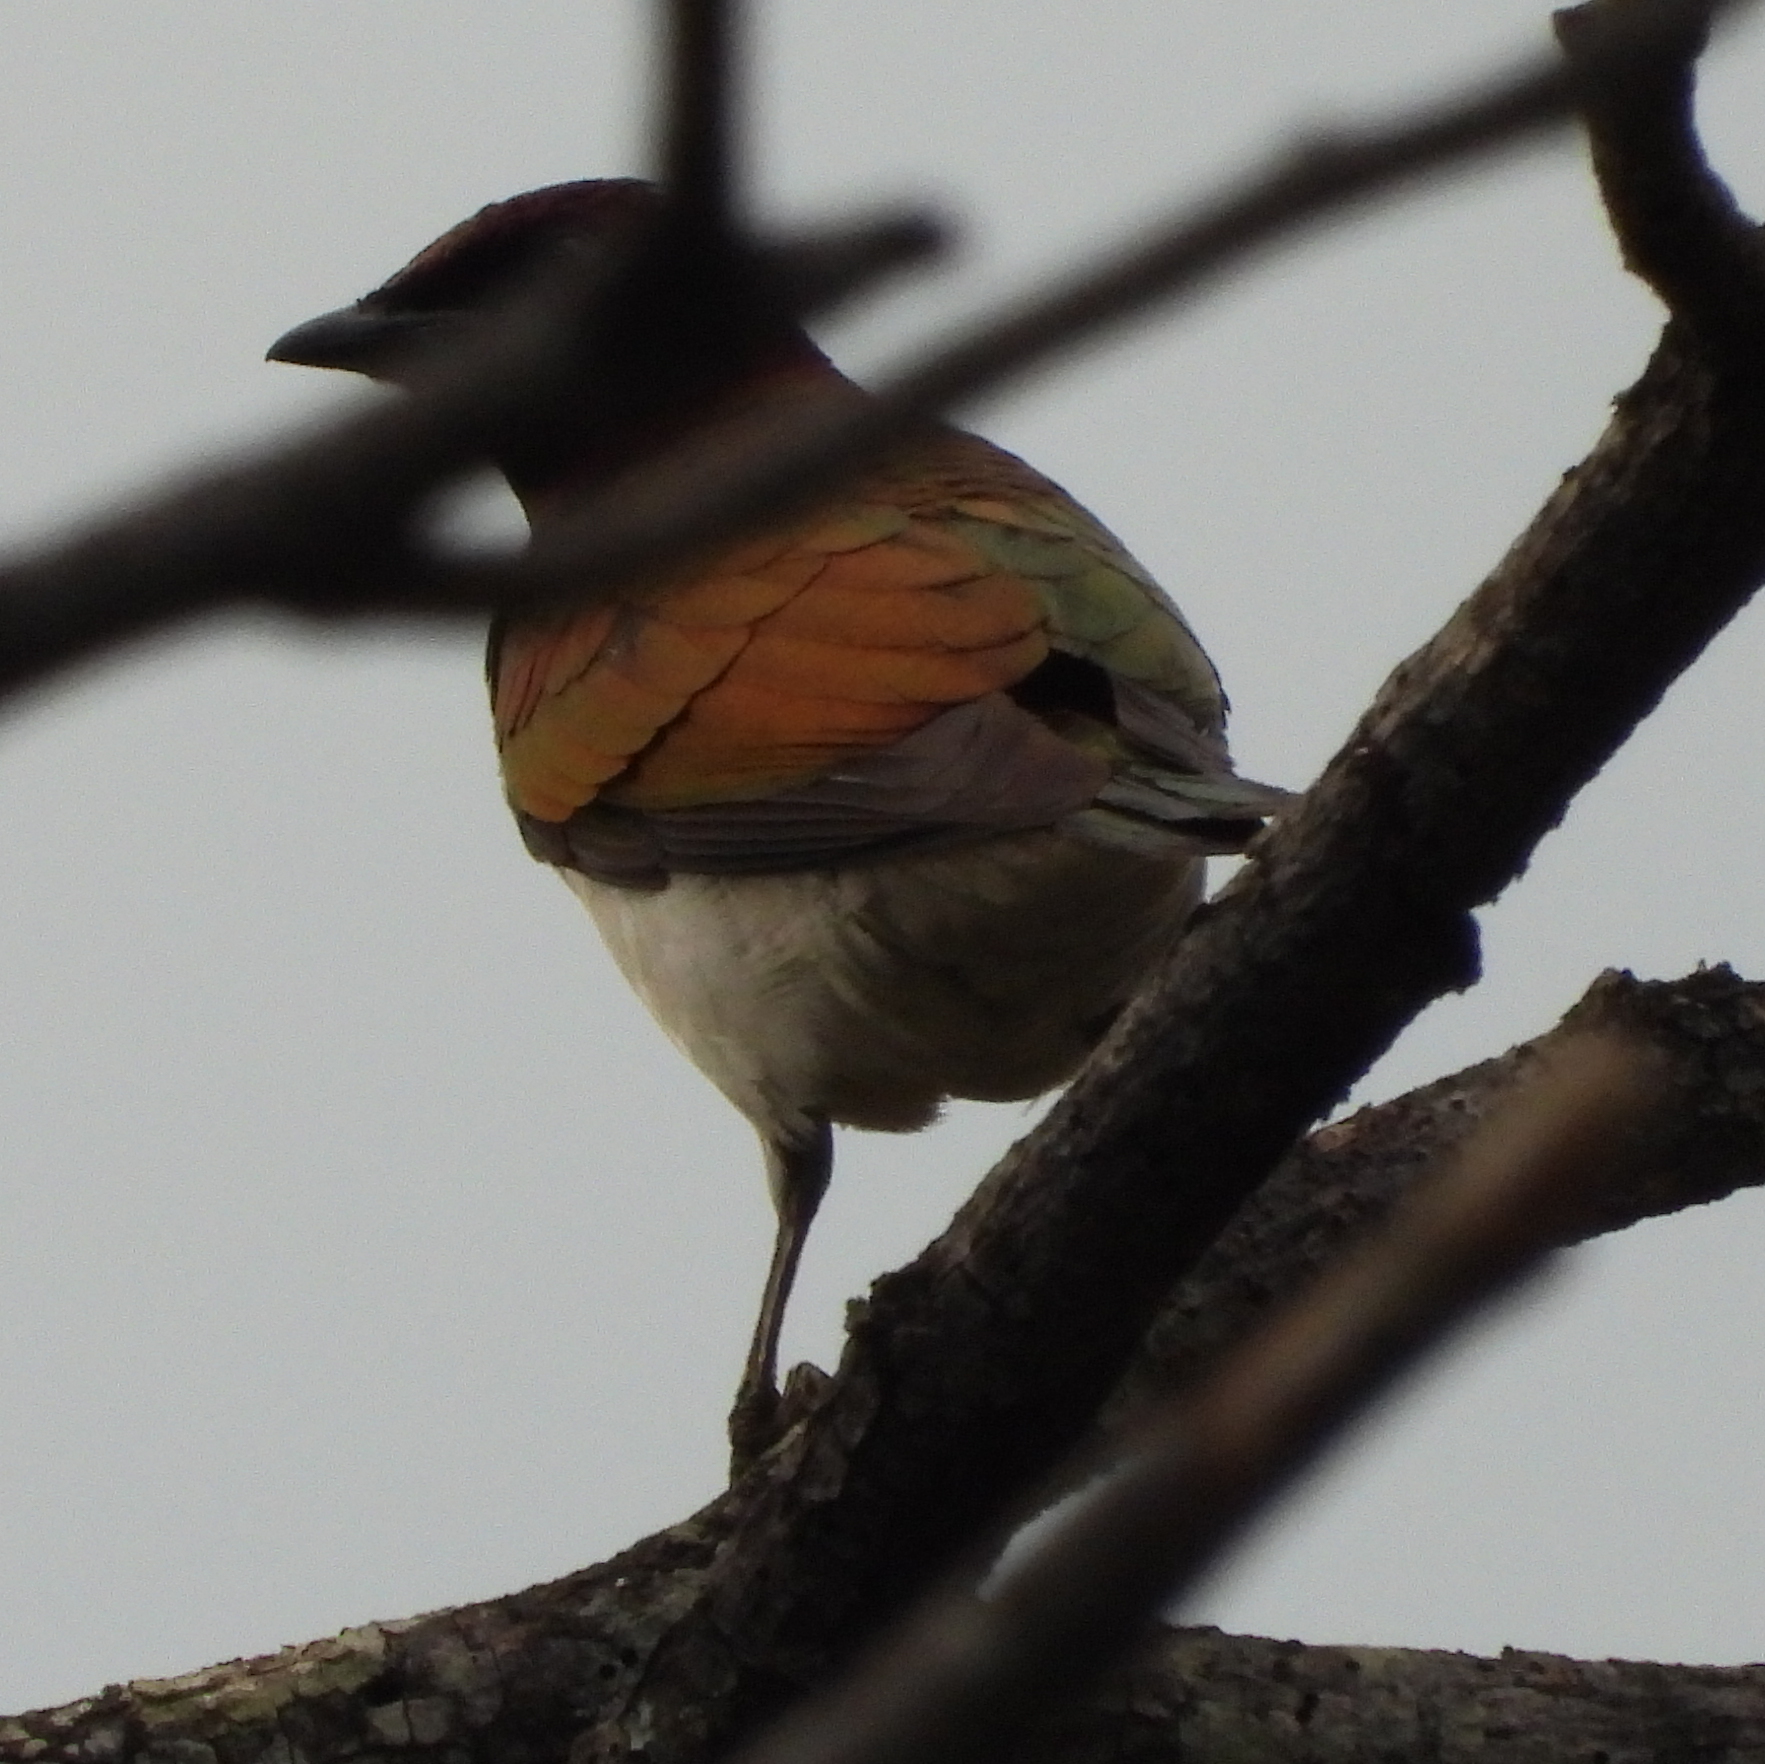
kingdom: Animalia
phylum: Chordata
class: Aves
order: Passeriformes
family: Sturnidae
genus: Cinnyricinclus
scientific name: Cinnyricinclus leucogaster
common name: Violet-backed starling
